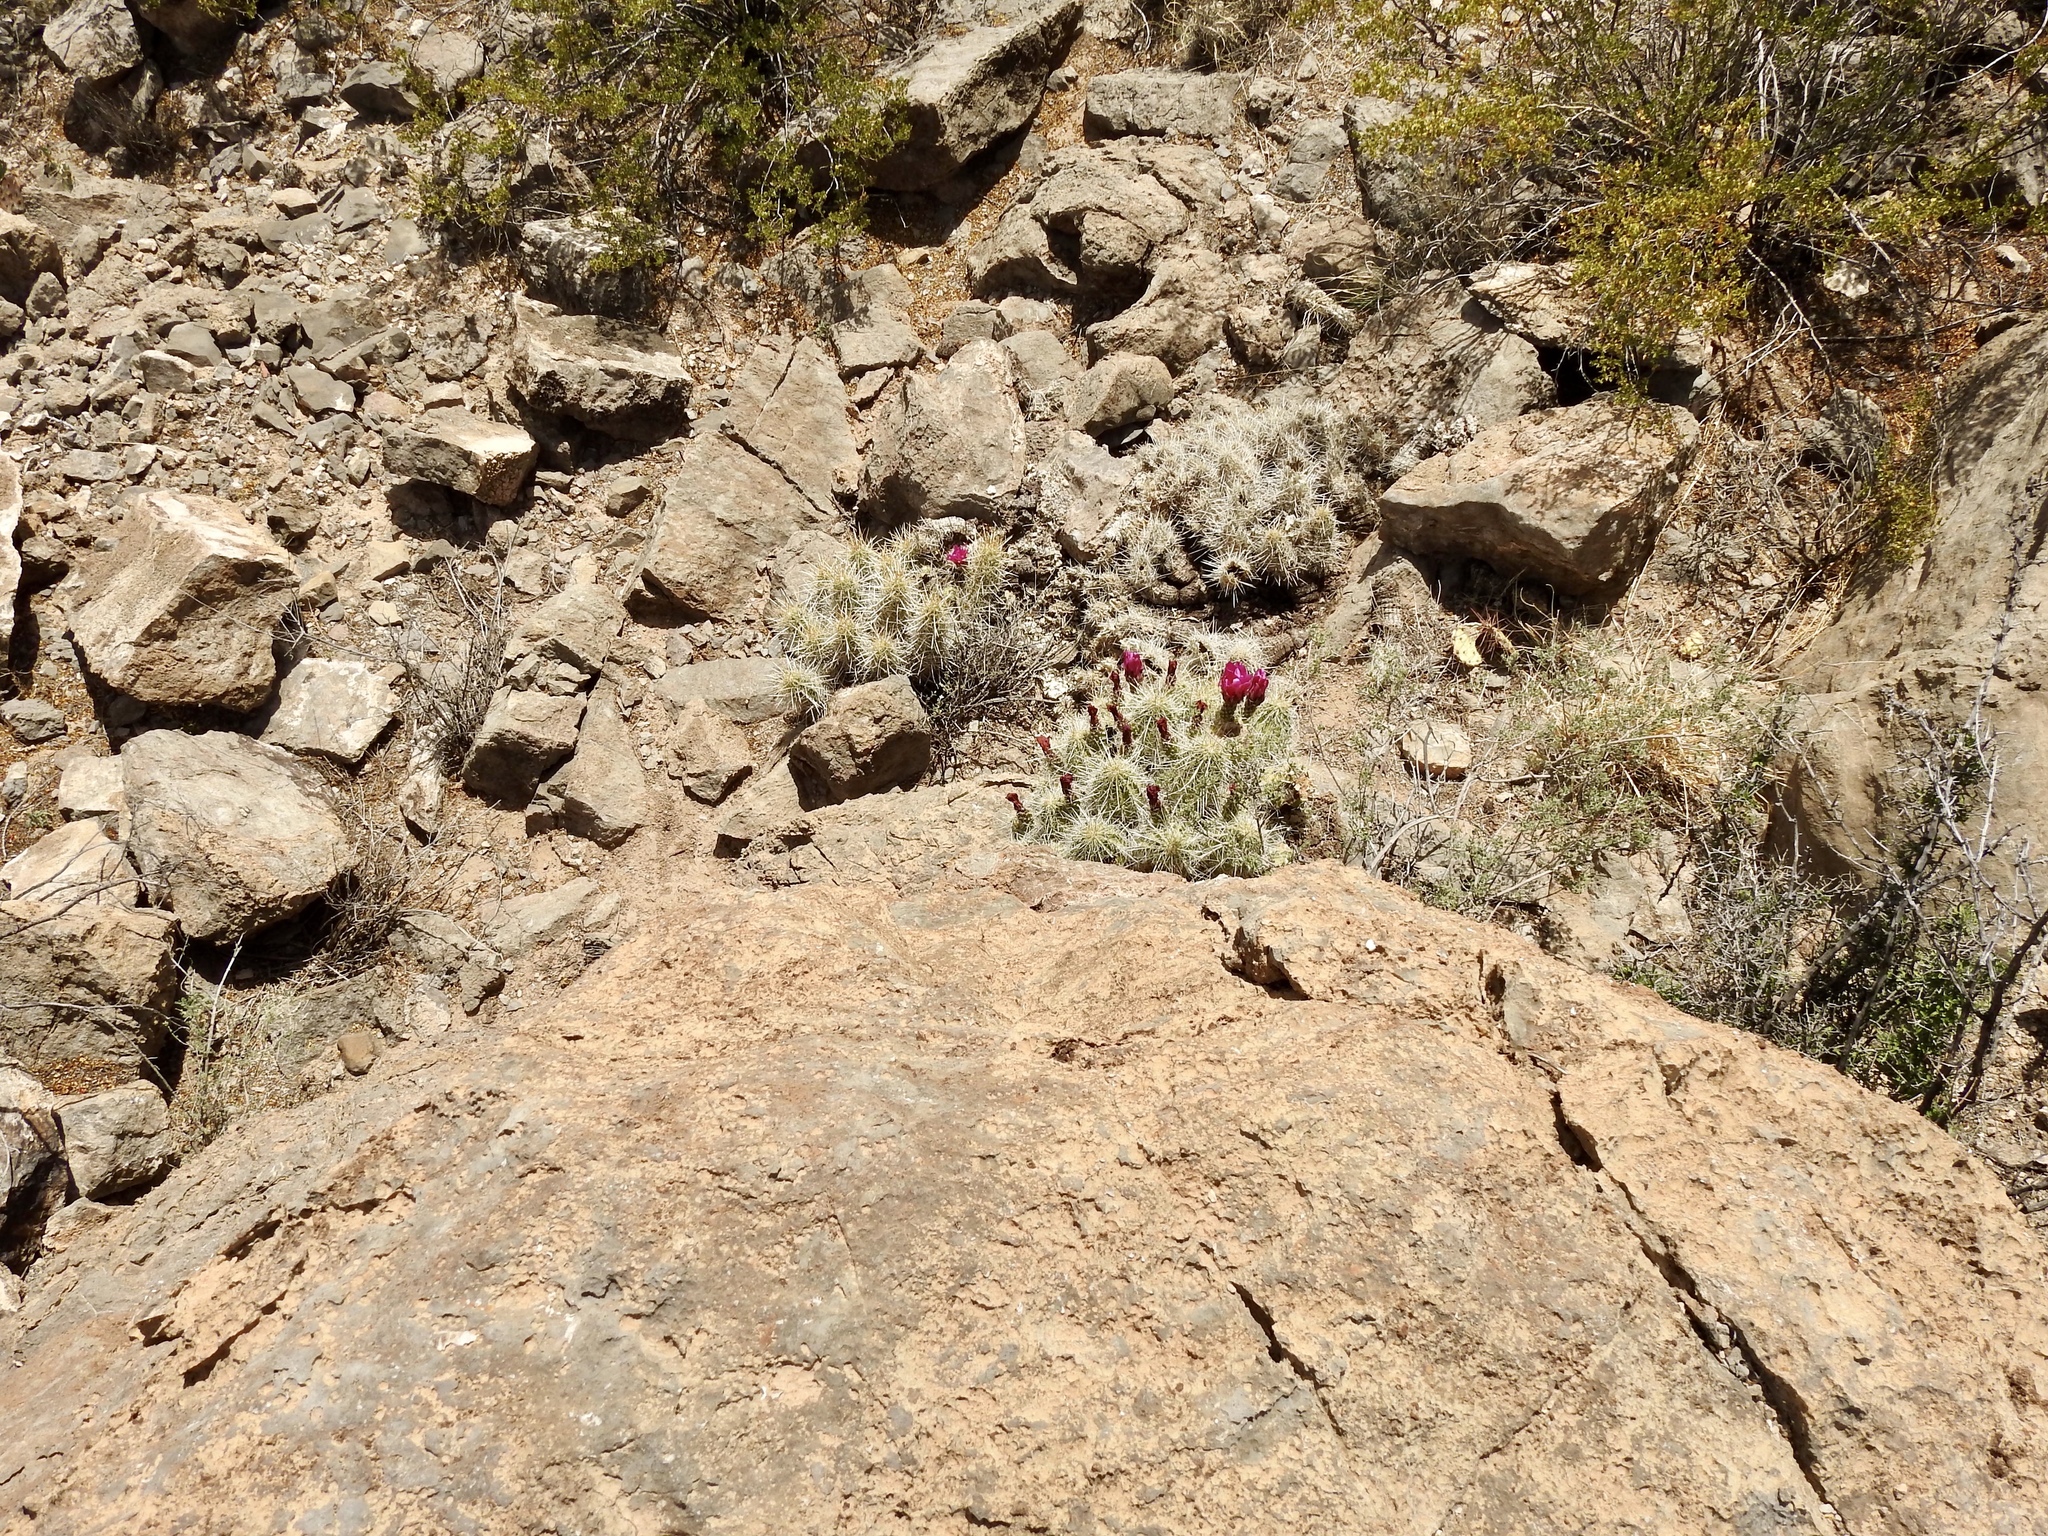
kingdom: Plantae
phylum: Tracheophyta
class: Magnoliopsida
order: Caryophyllales
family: Cactaceae
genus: Echinocereus
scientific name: Echinocereus stramineus
